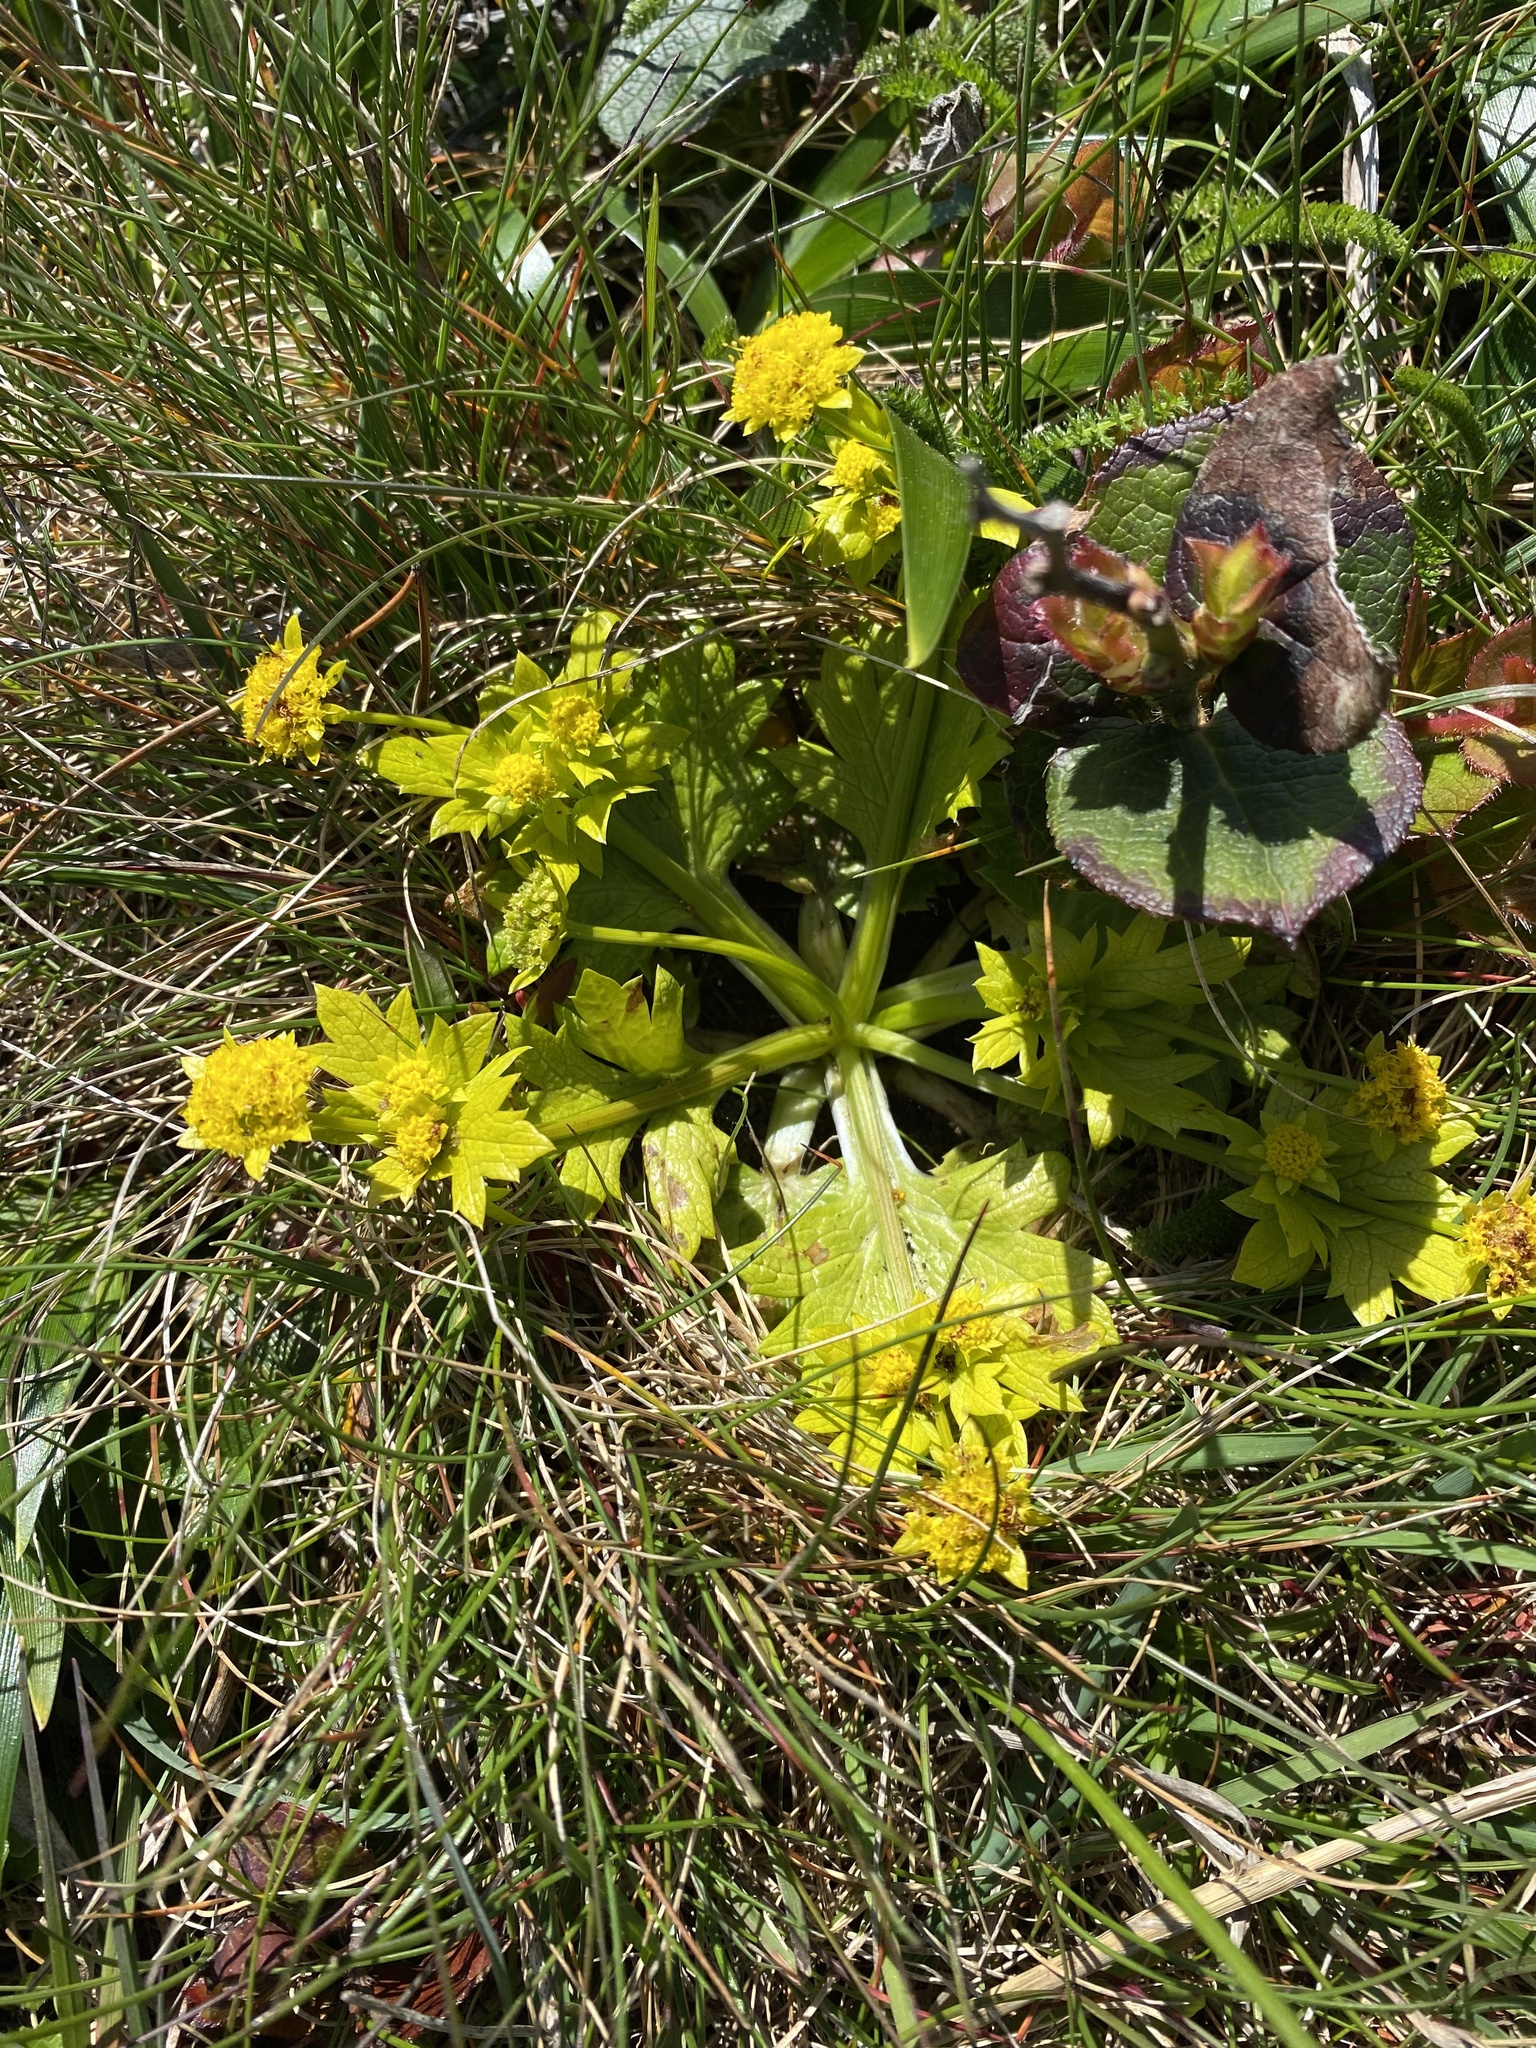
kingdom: Plantae
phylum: Tracheophyta
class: Magnoliopsida
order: Apiales
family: Apiaceae
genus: Sanicula
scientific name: Sanicula arctopoides
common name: Footsteps-of-spring
